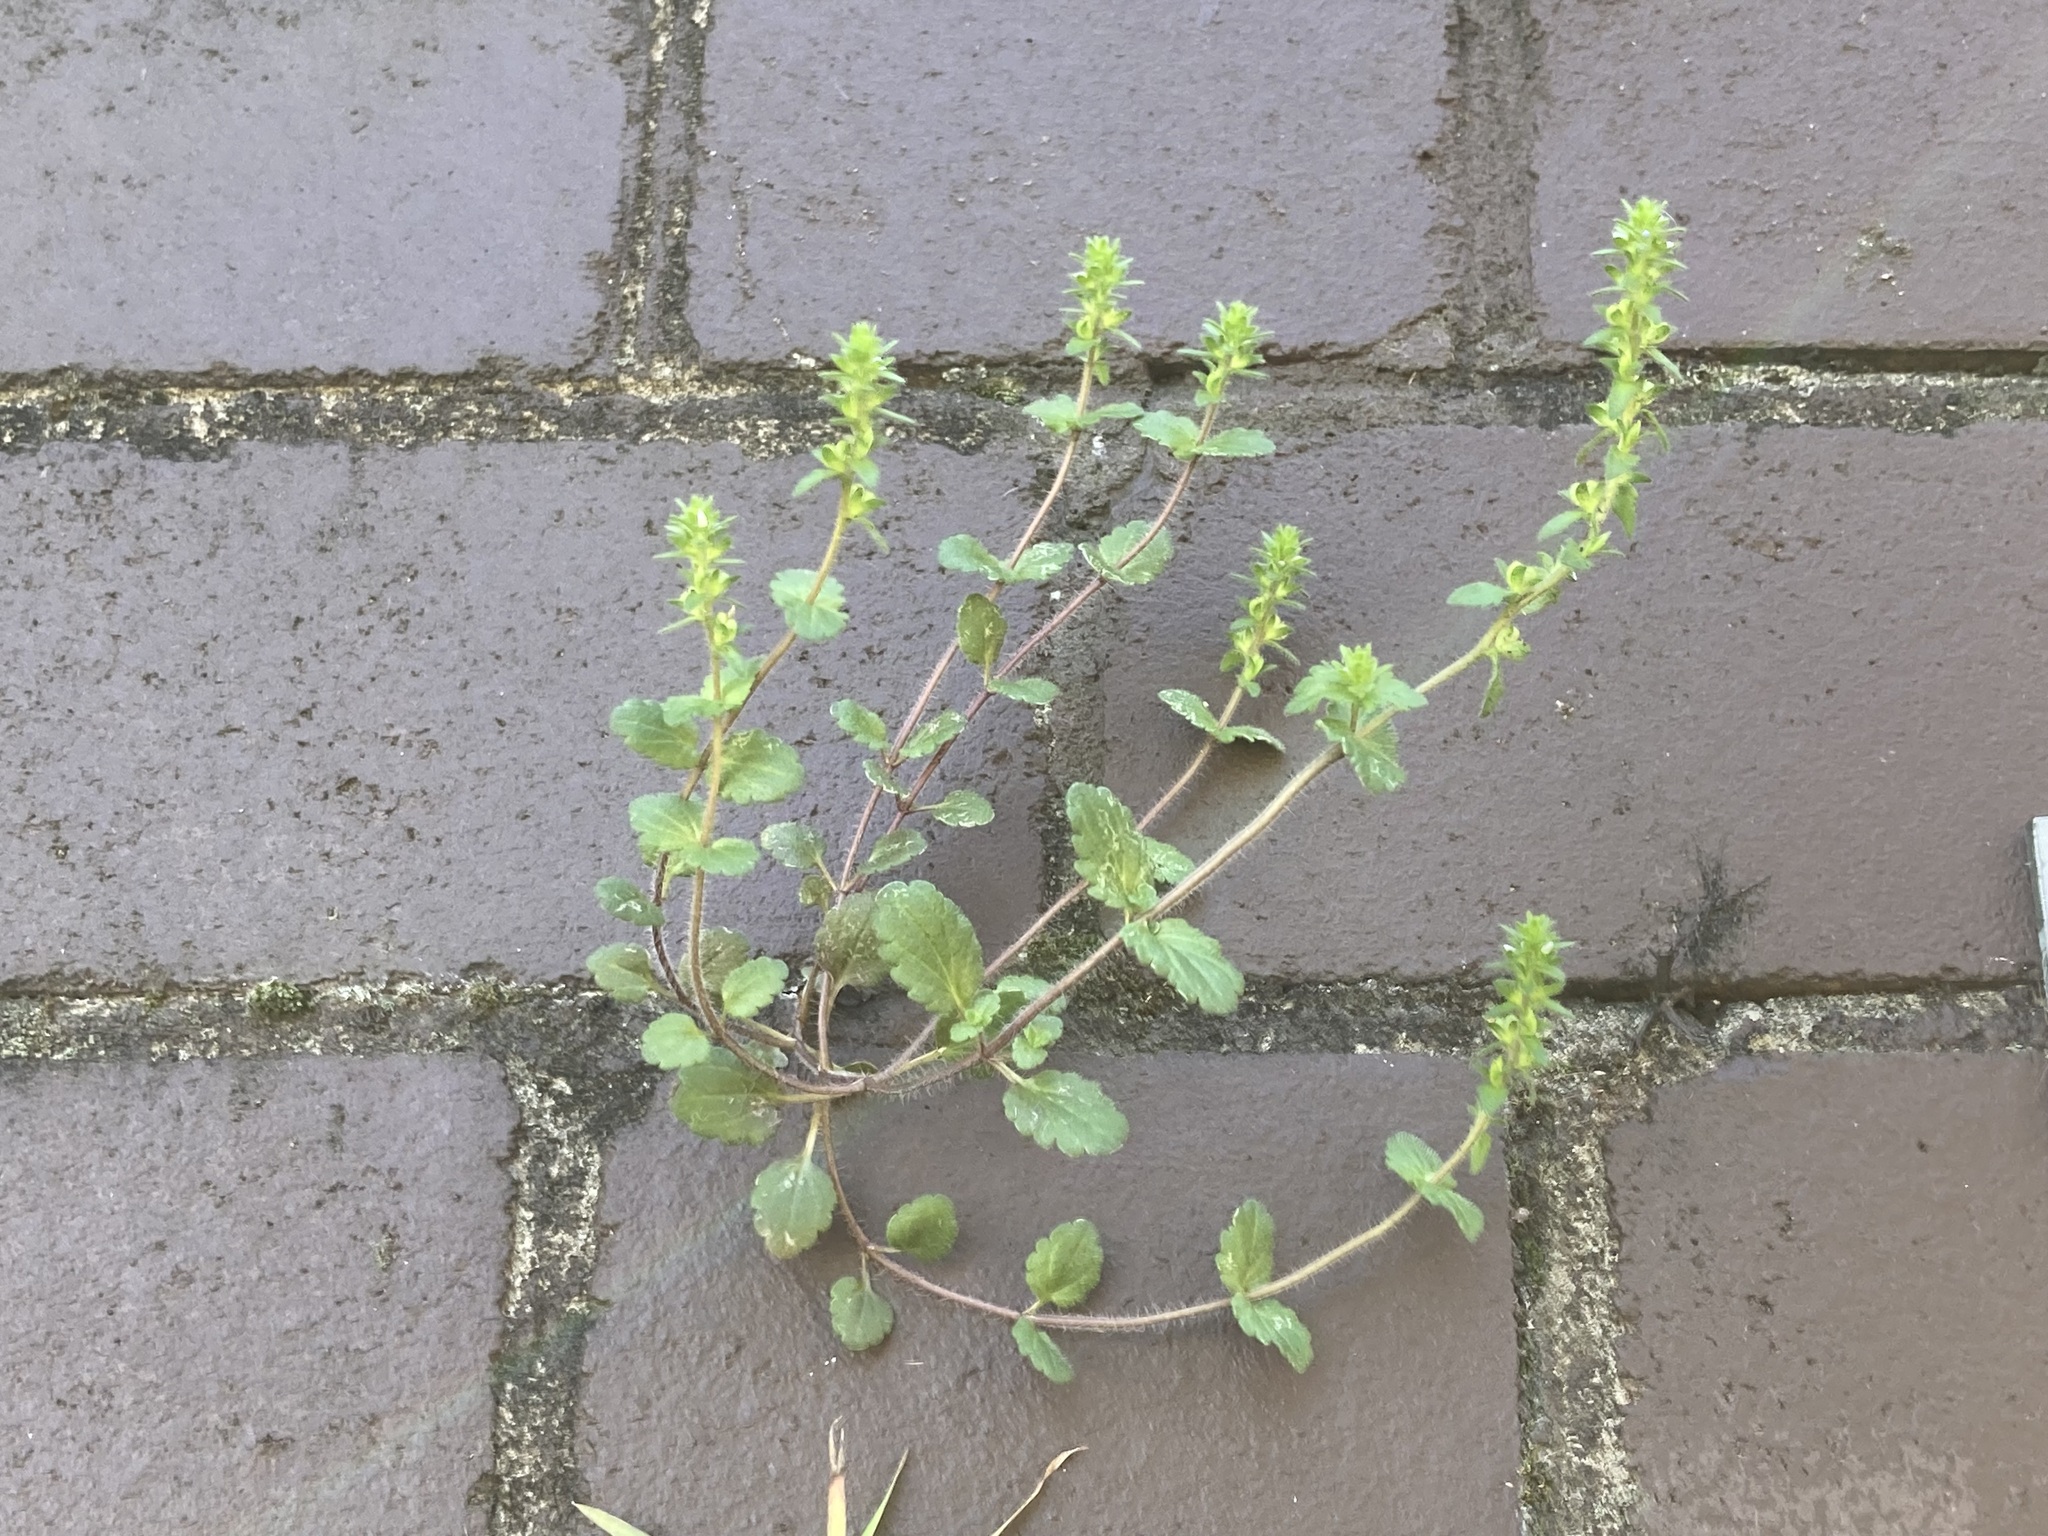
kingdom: Plantae
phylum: Tracheophyta
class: Magnoliopsida
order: Lamiales
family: Plantaginaceae
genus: Veronica
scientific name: Veronica arvensis
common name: Corn speedwell
